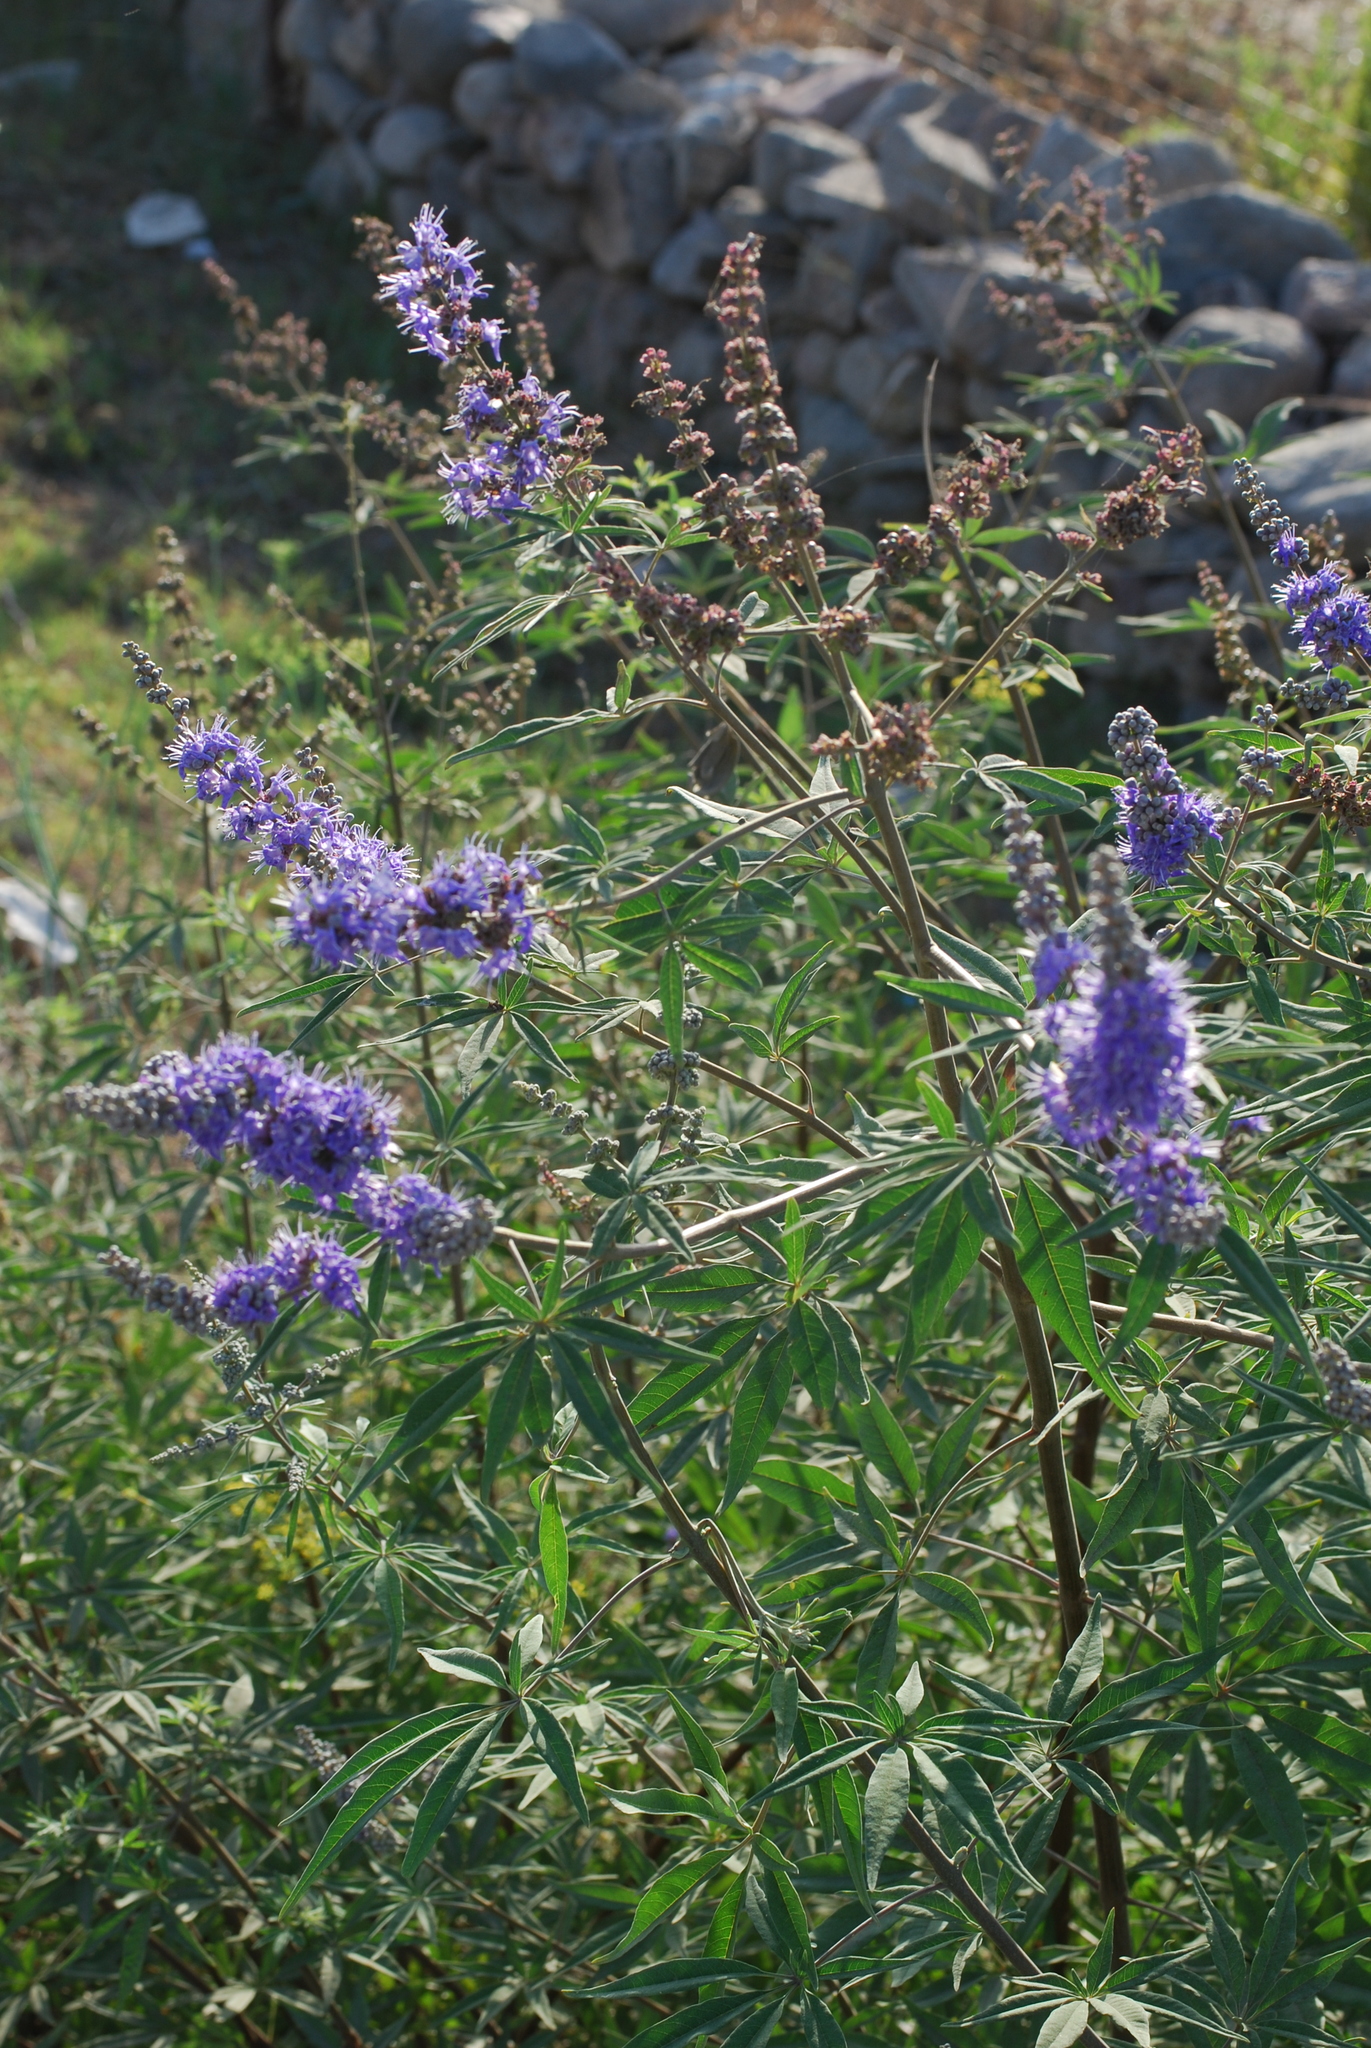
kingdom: Plantae
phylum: Tracheophyta
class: Magnoliopsida
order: Lamiales
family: Lamiaceae
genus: Vitex
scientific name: Vitex agnus-castus
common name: Chasteberry
